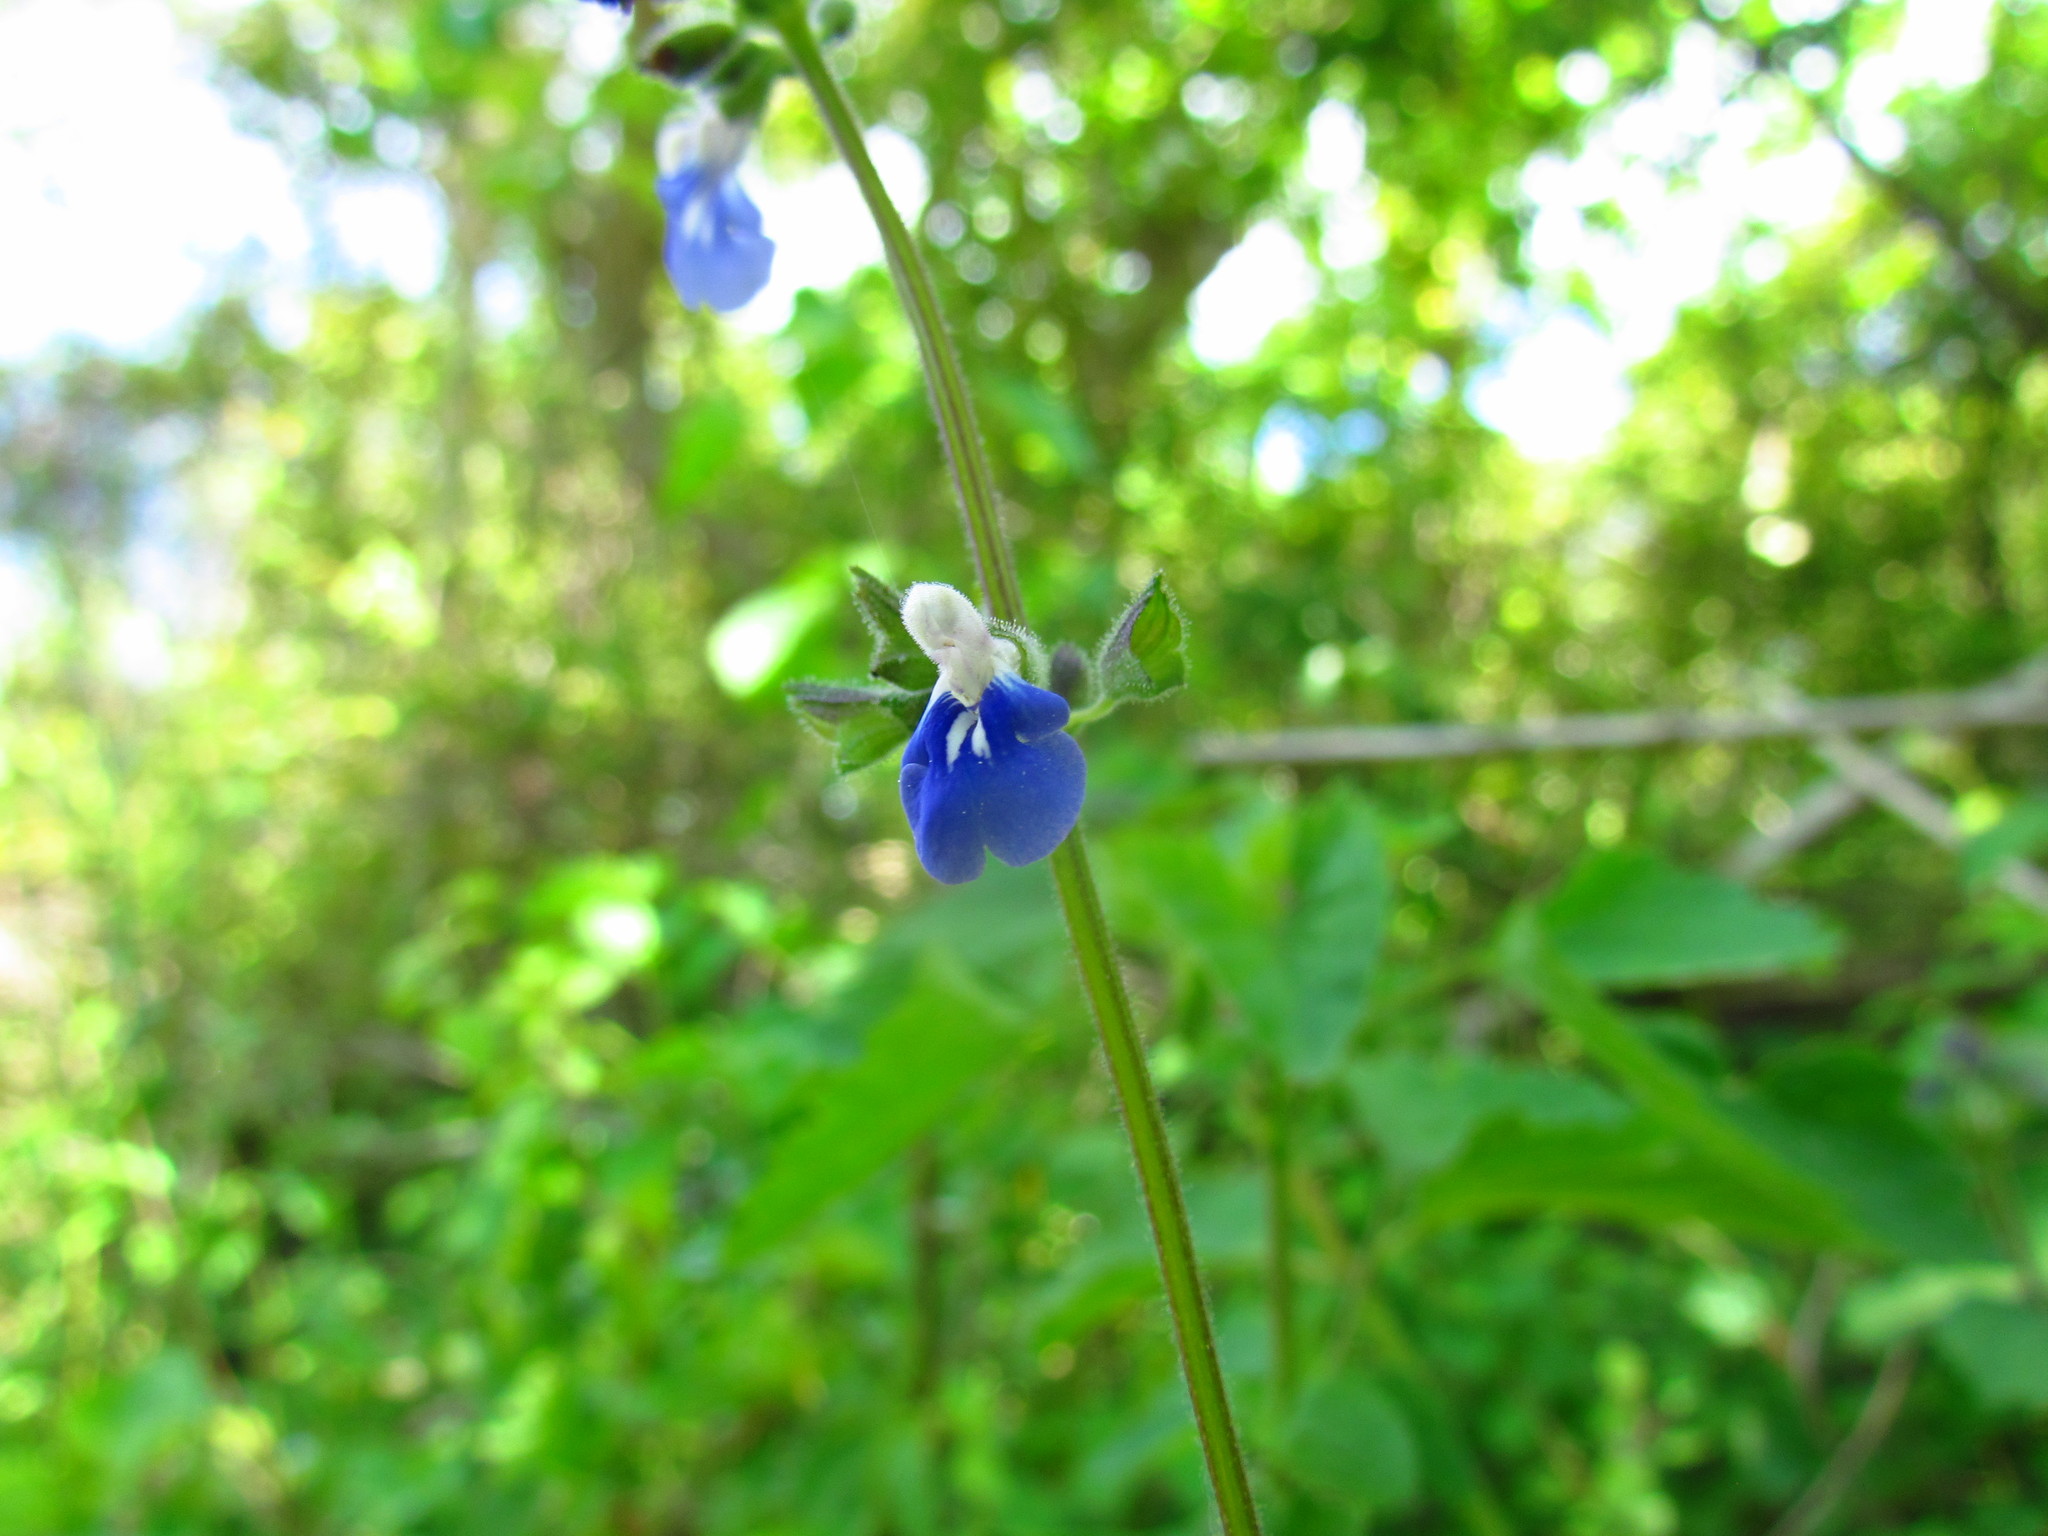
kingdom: Plantae
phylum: Tracheophyta
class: Magnoliopsida
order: Lamiales
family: Lamiaceae
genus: Salvia
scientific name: Salvia procurrens
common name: Blue creeper
